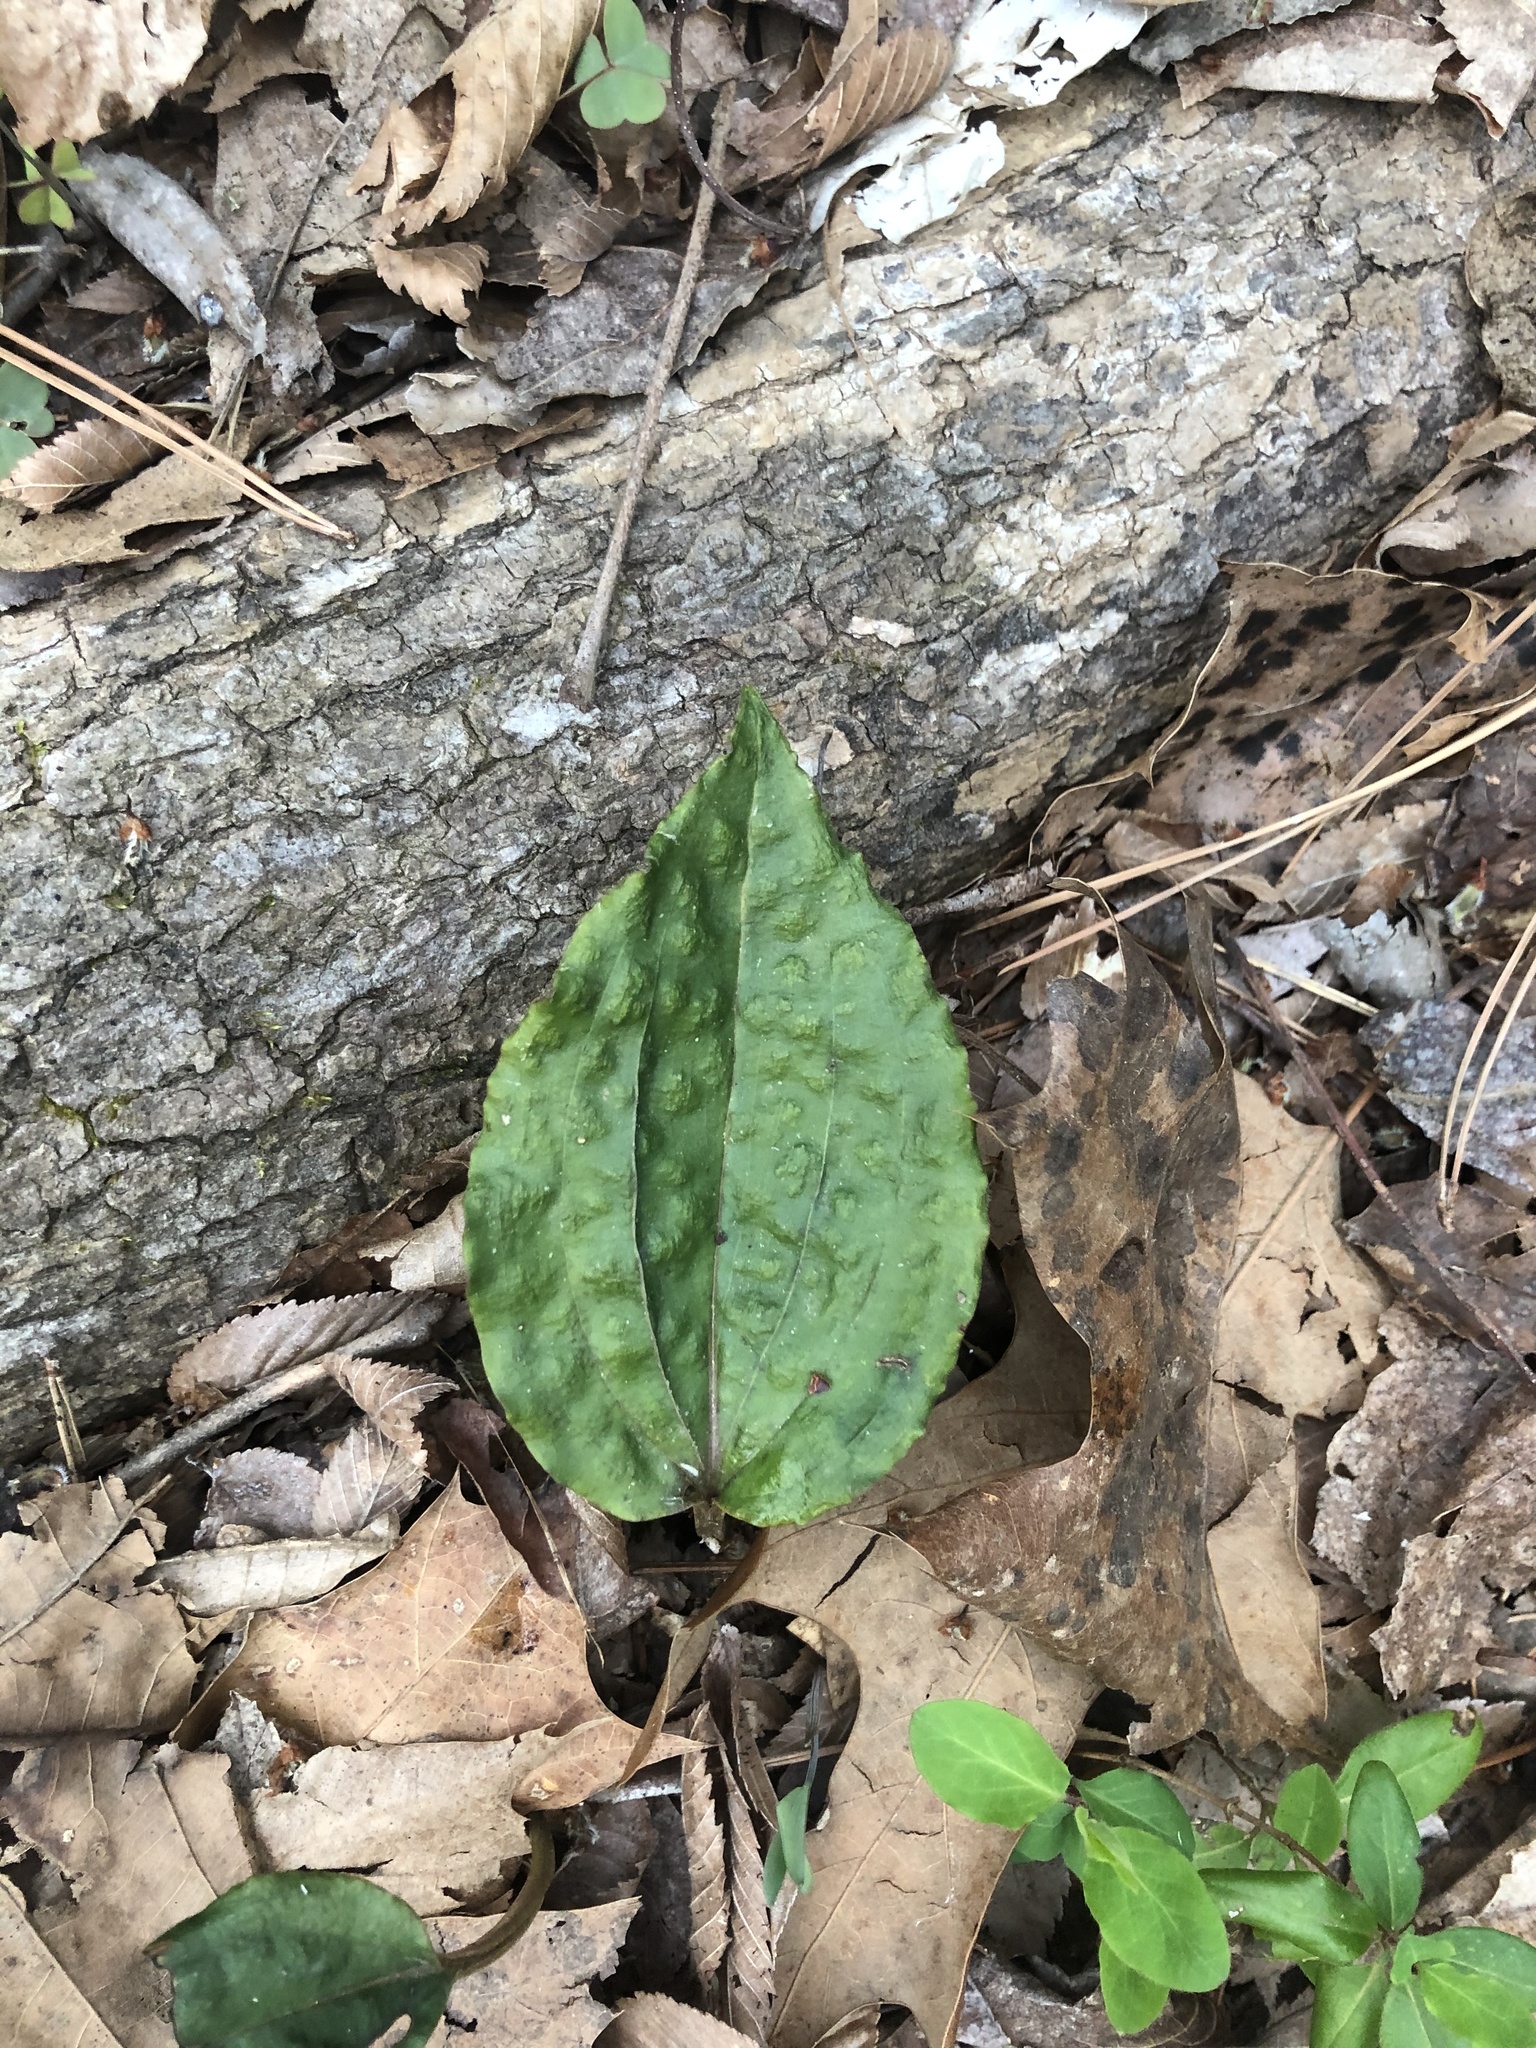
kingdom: Plantae
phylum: Tracheophyta
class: Liliopsida
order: Asparagales
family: Orchidaceae
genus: Tipularia
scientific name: Tipularia discolor
